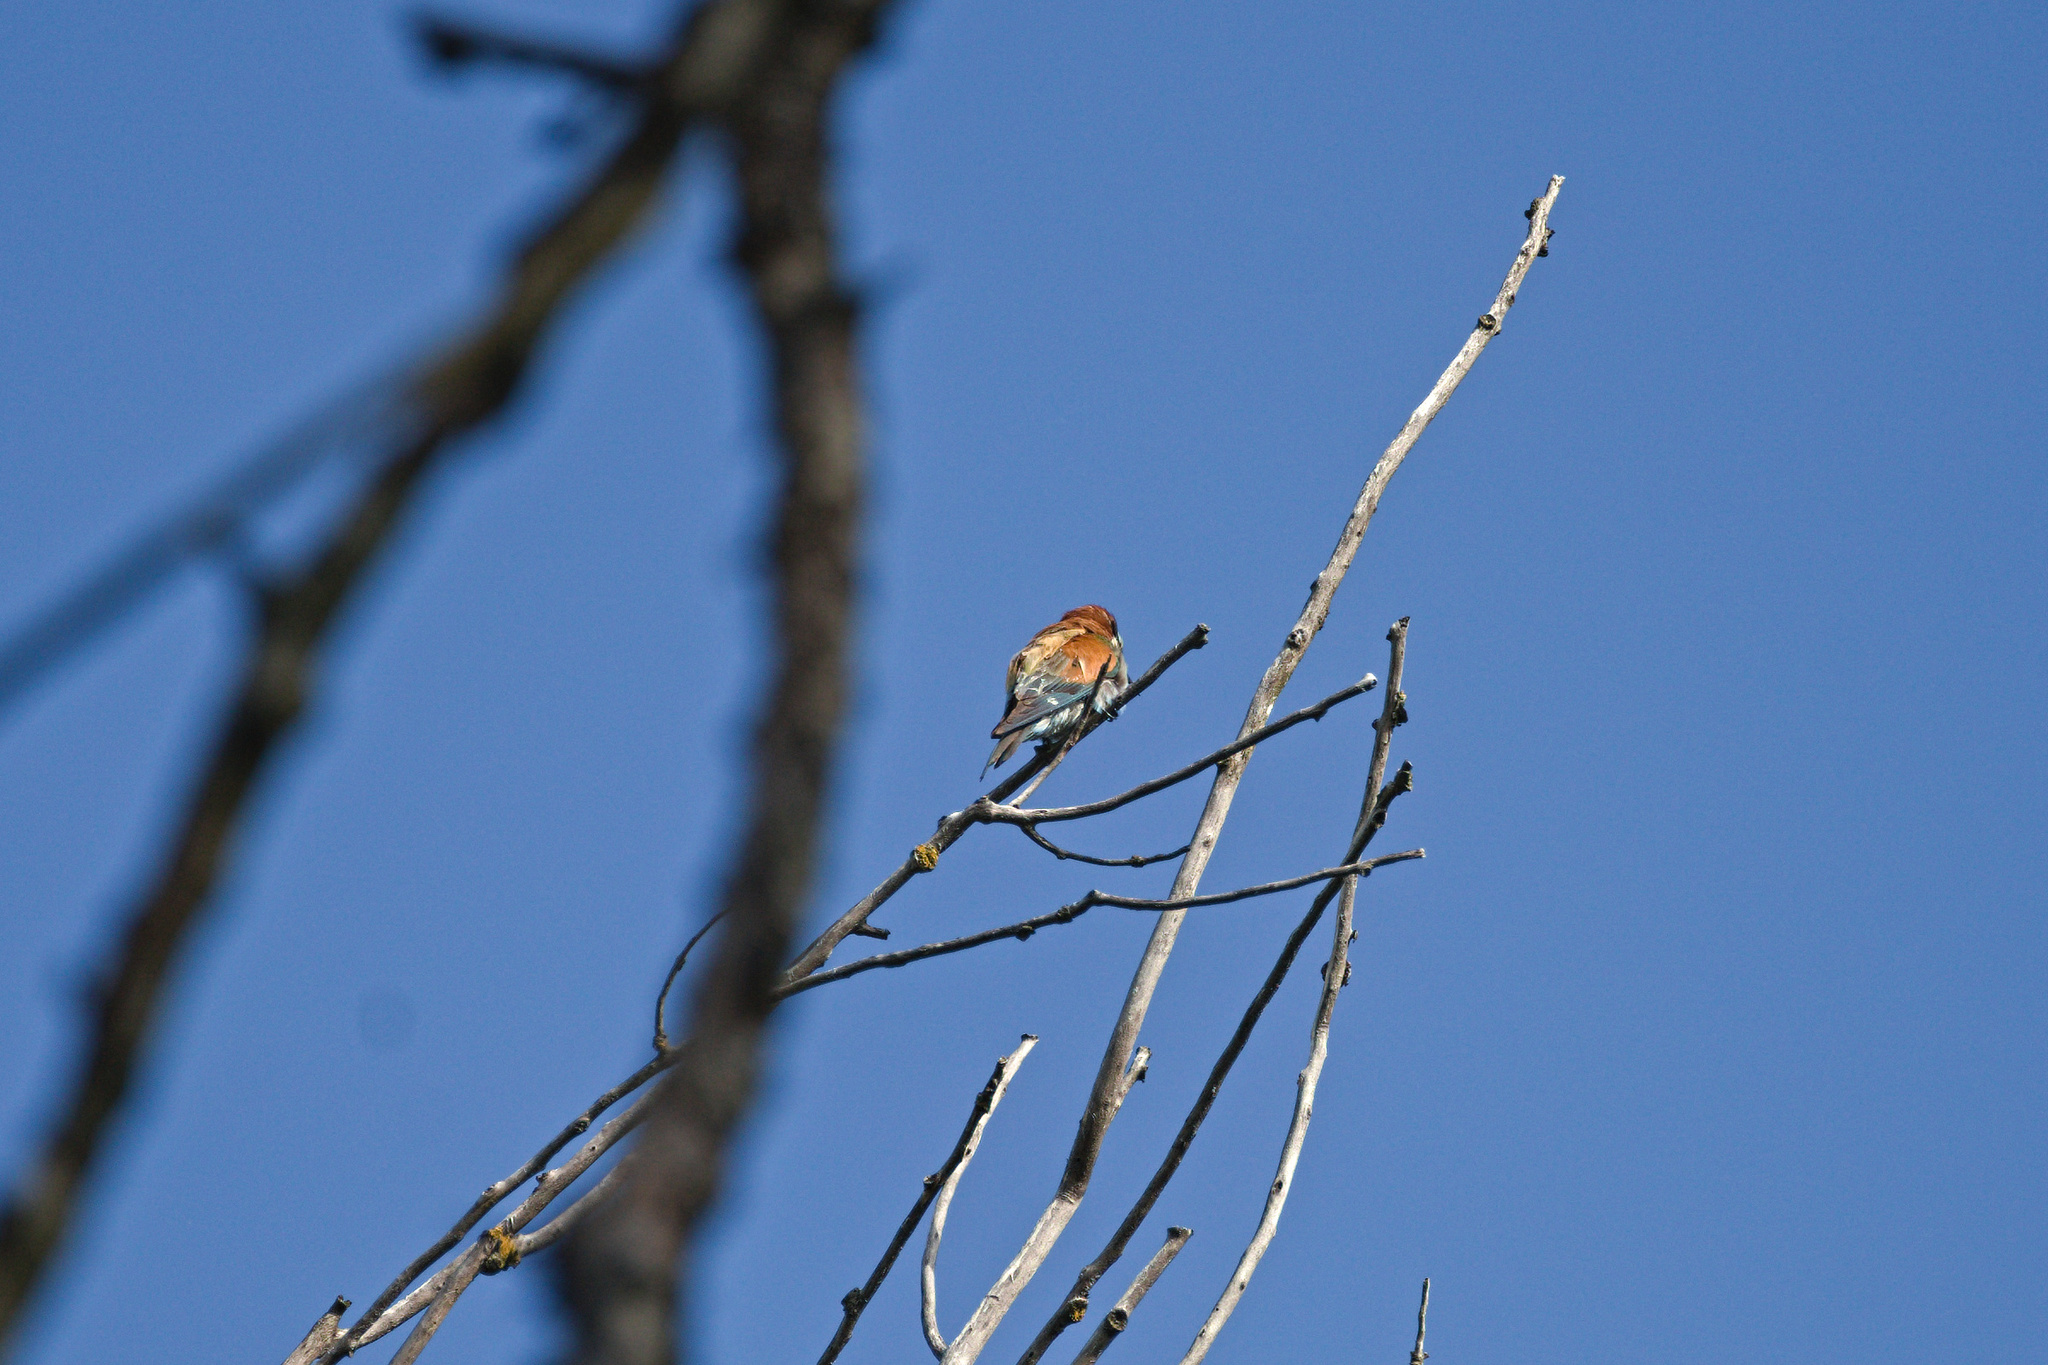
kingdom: Animalia
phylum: Chordata
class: Aves
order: Coraciiformes
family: Meropidae
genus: Merops
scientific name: Merops apiaster
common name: European bee-eater
